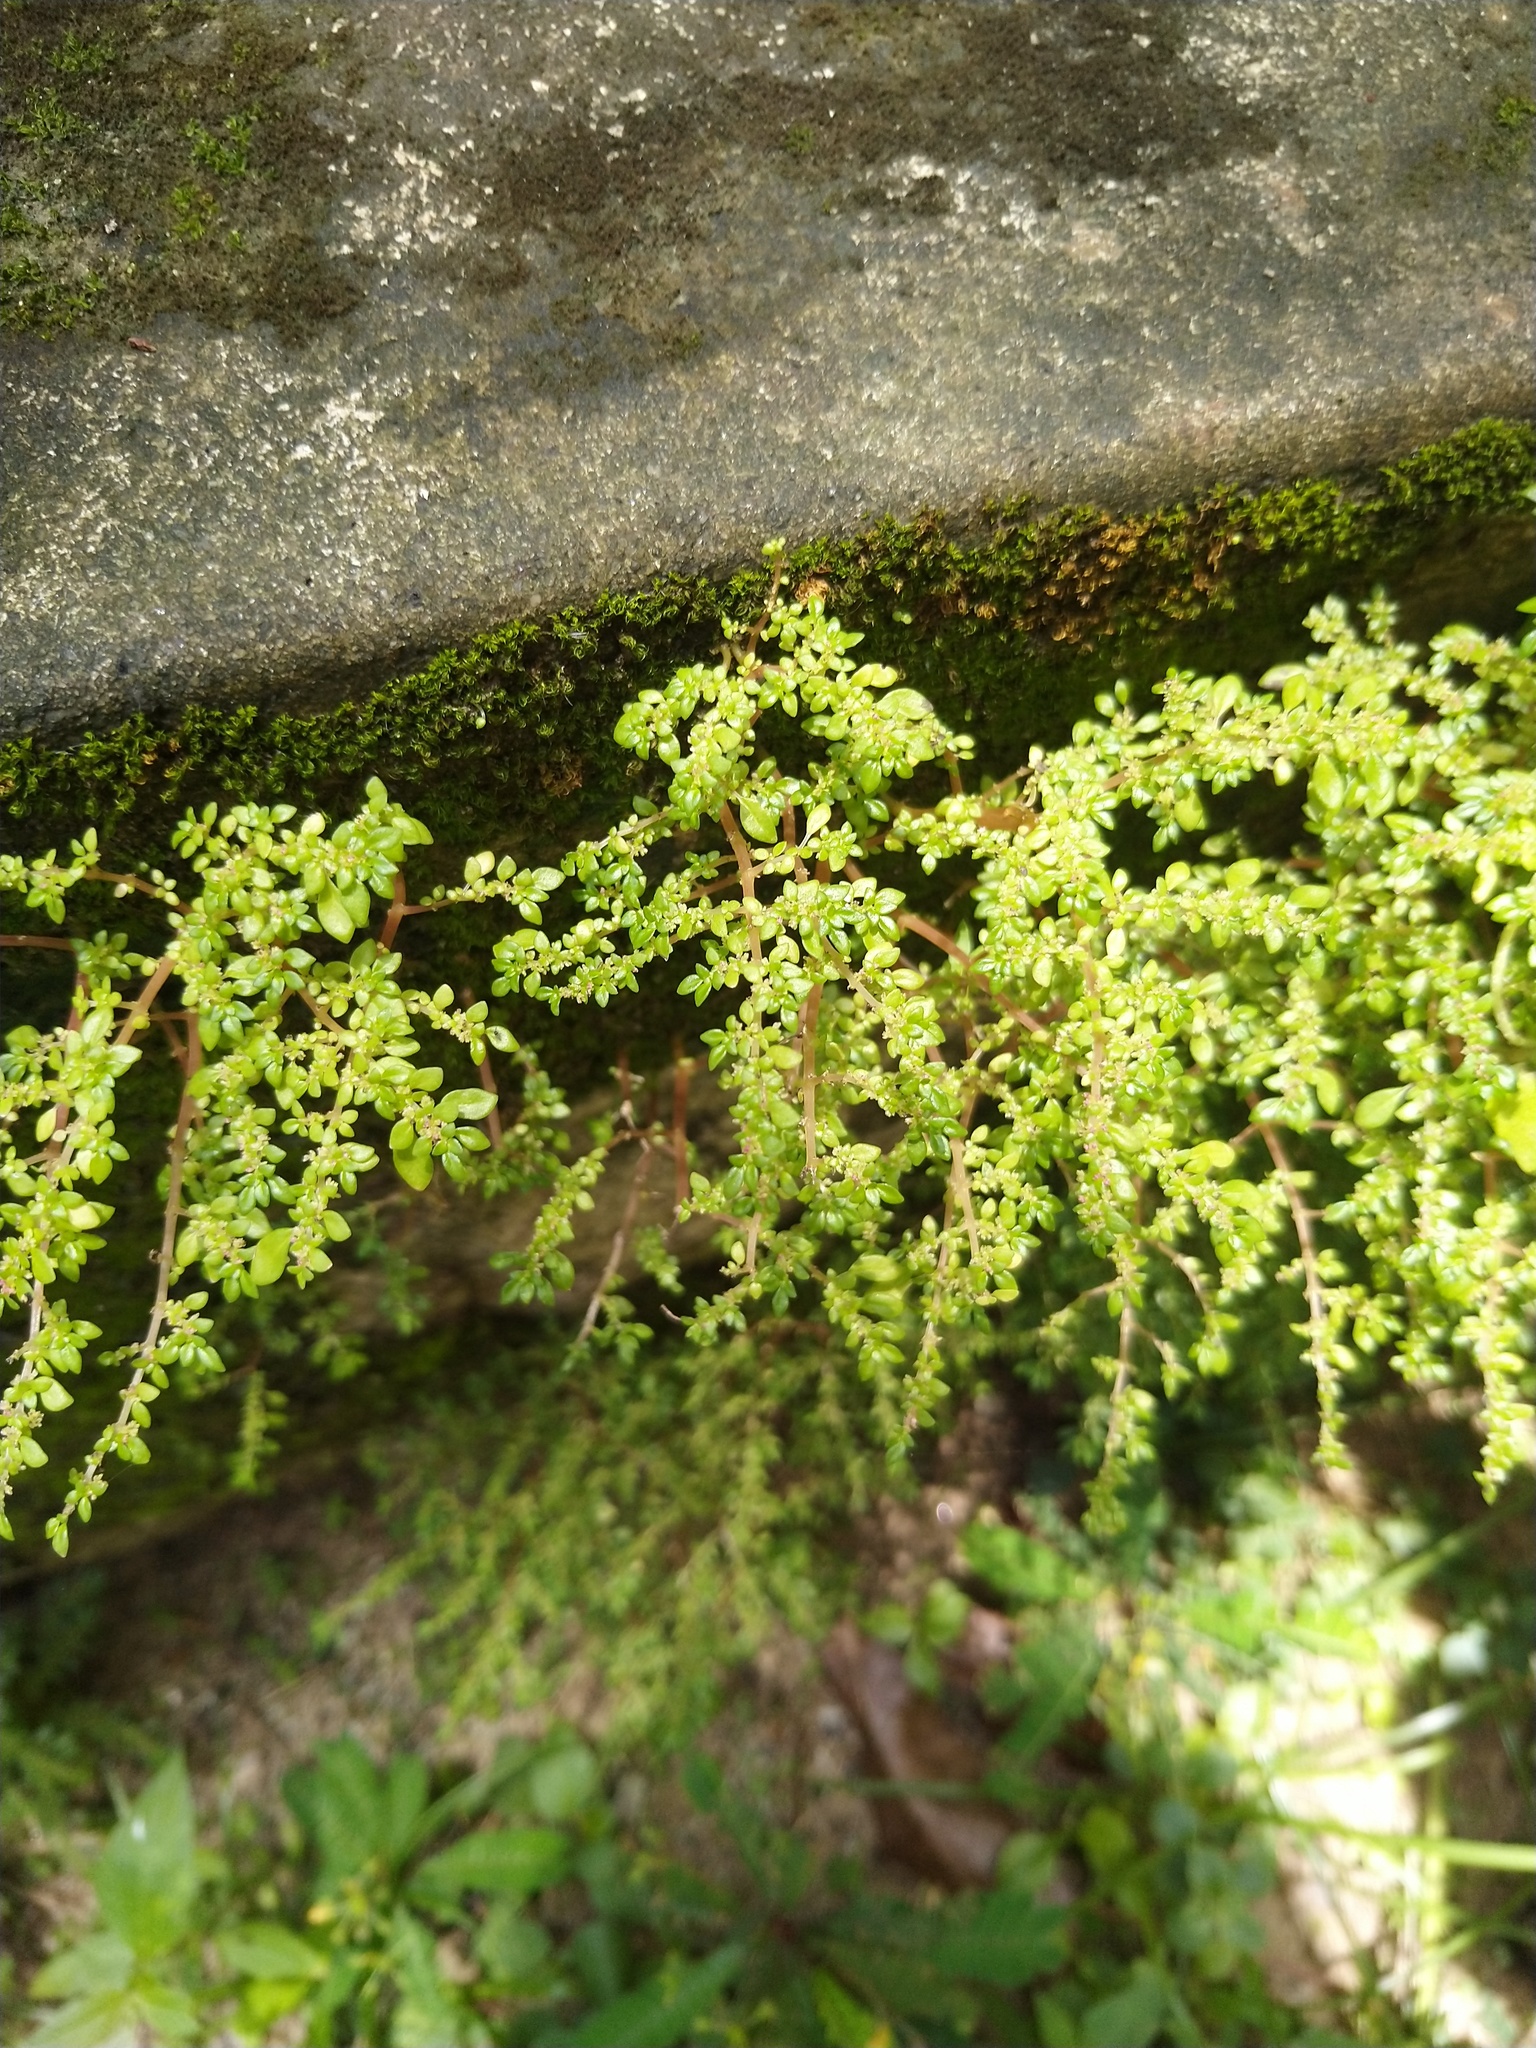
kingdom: Plantae
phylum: Tracheophyta
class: Magnoliopsida
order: Rosales
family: Urticaceae
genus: Pilea
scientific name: Pilea microphylla
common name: Artillery-plant
